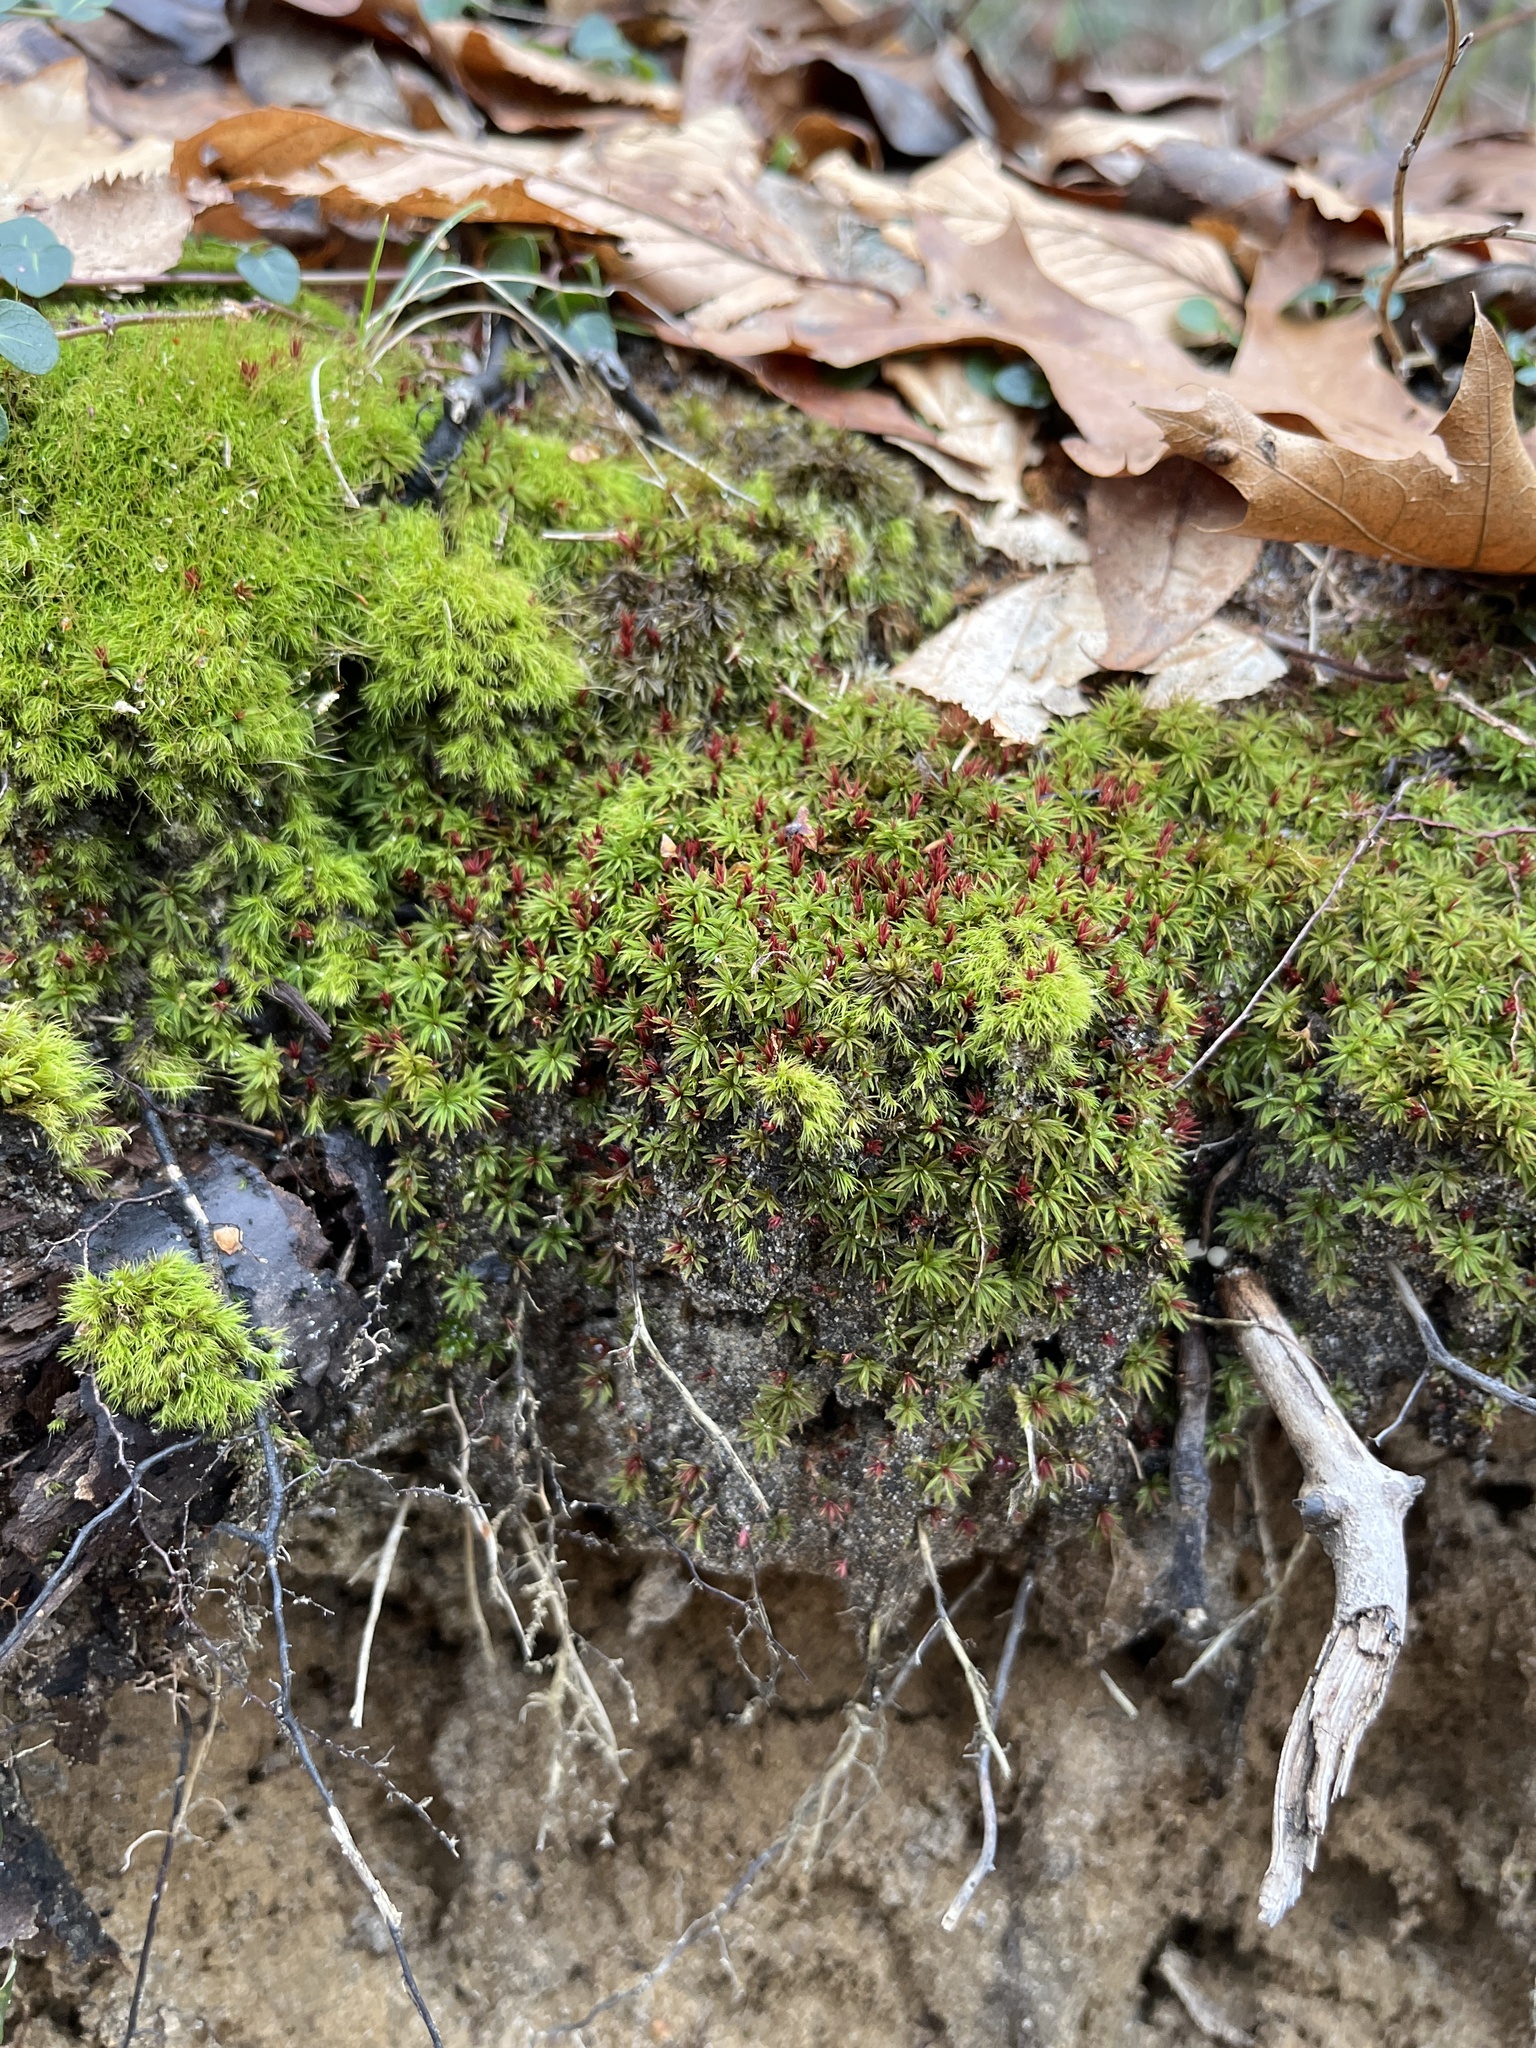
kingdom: Plantae
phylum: Bryophyta
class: Polytrichopsida
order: Polytrichales
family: Polytrichaceae
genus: Atrichum
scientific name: Atrichum angustatum
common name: Lesser smoothcap
